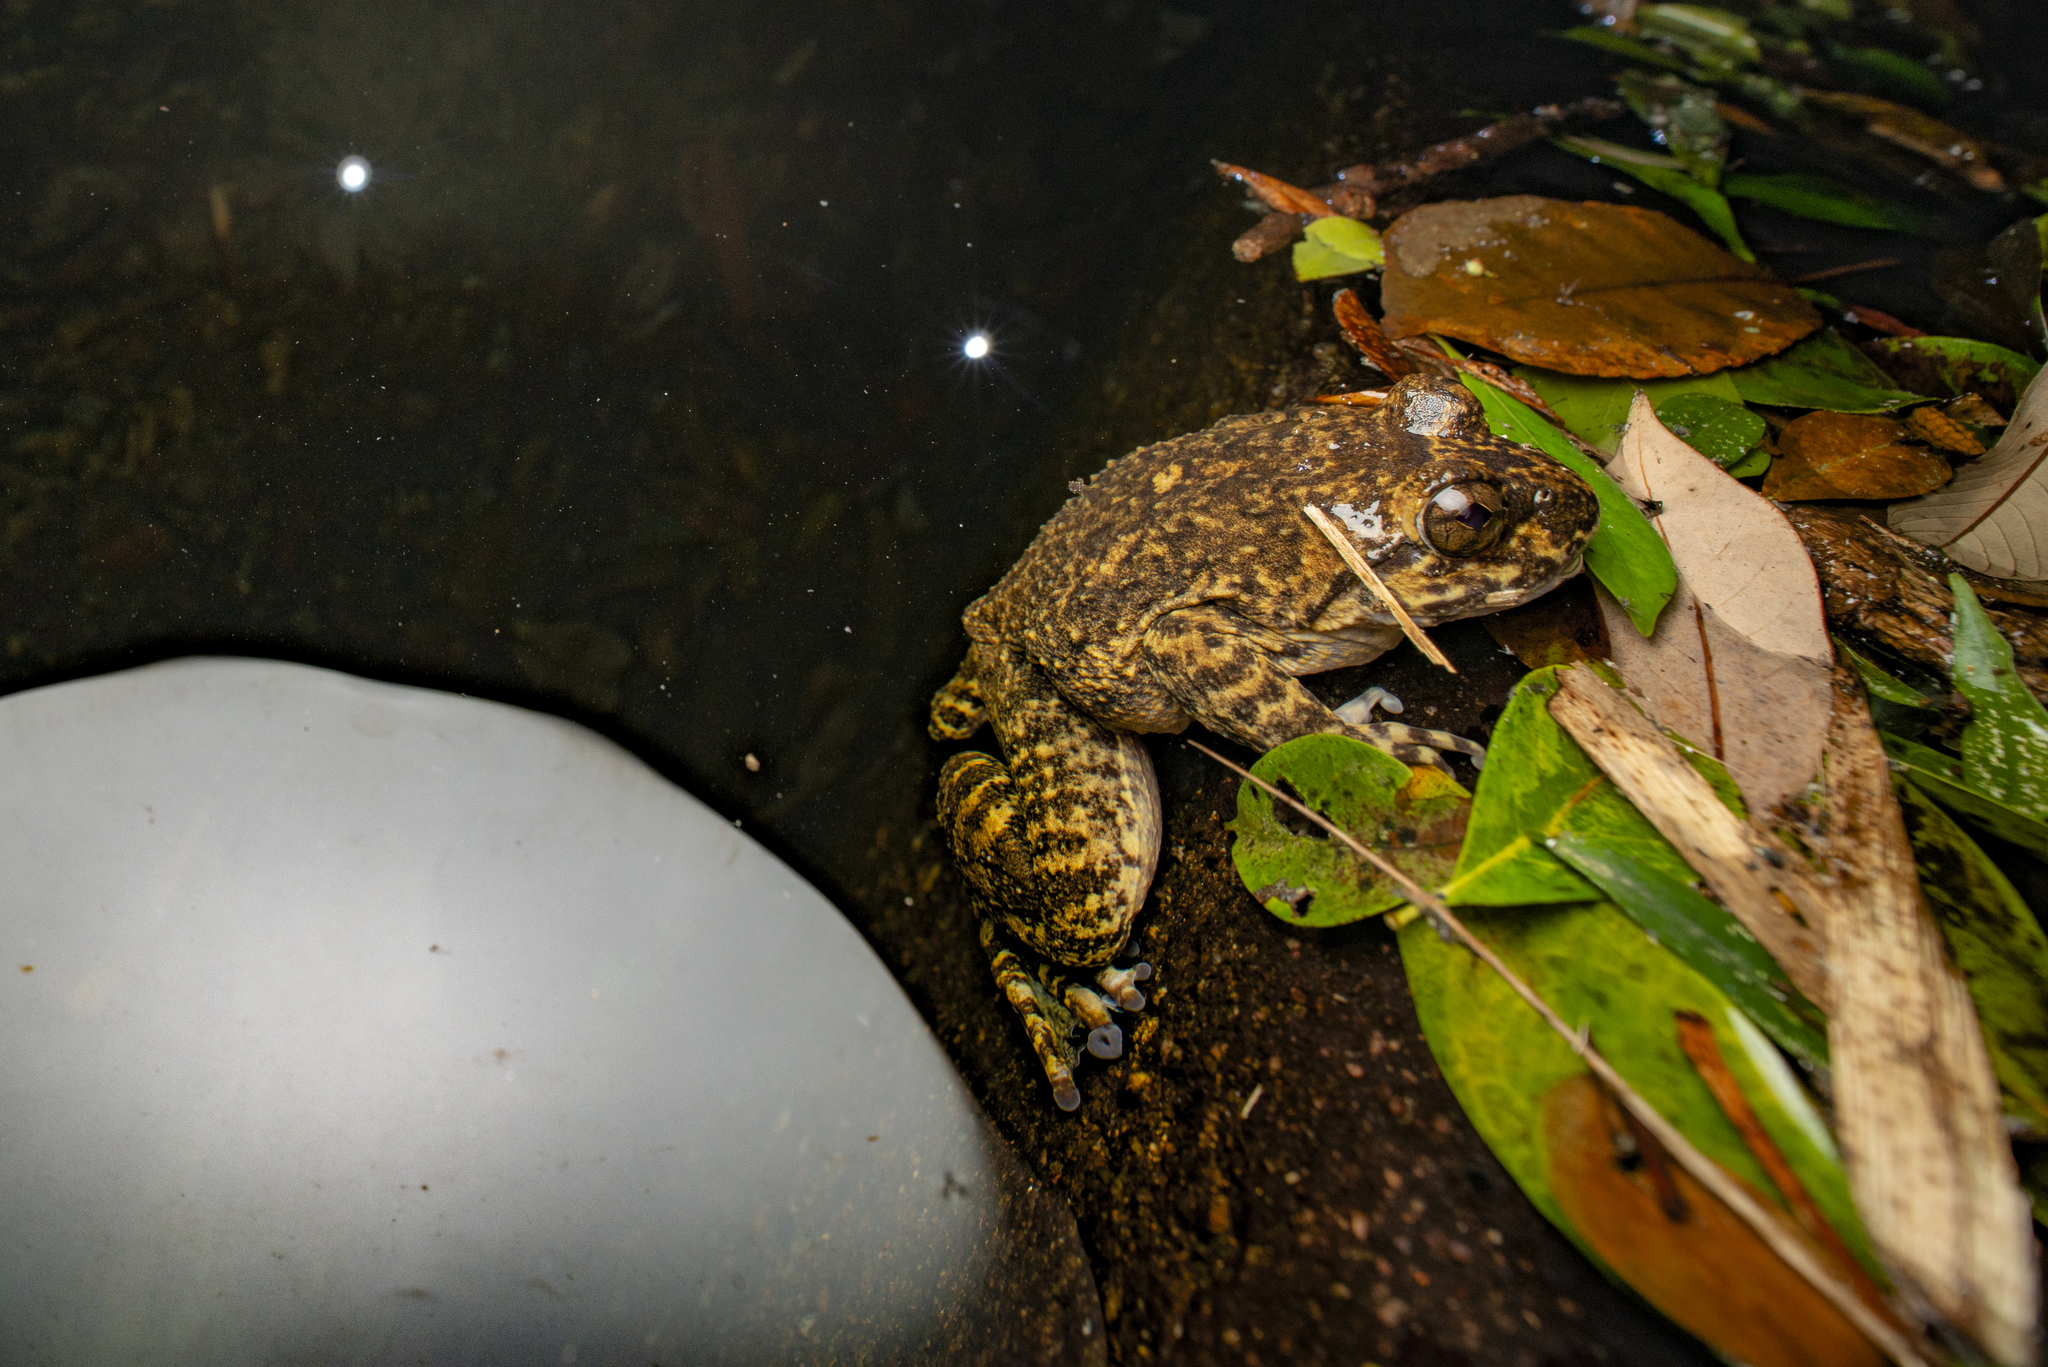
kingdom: Animalia
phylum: Chordata
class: Amphibia
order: Anura
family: Dicroglossidae
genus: Quasipaa
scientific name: Quasipaa spinosa
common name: Chinese edible frog
